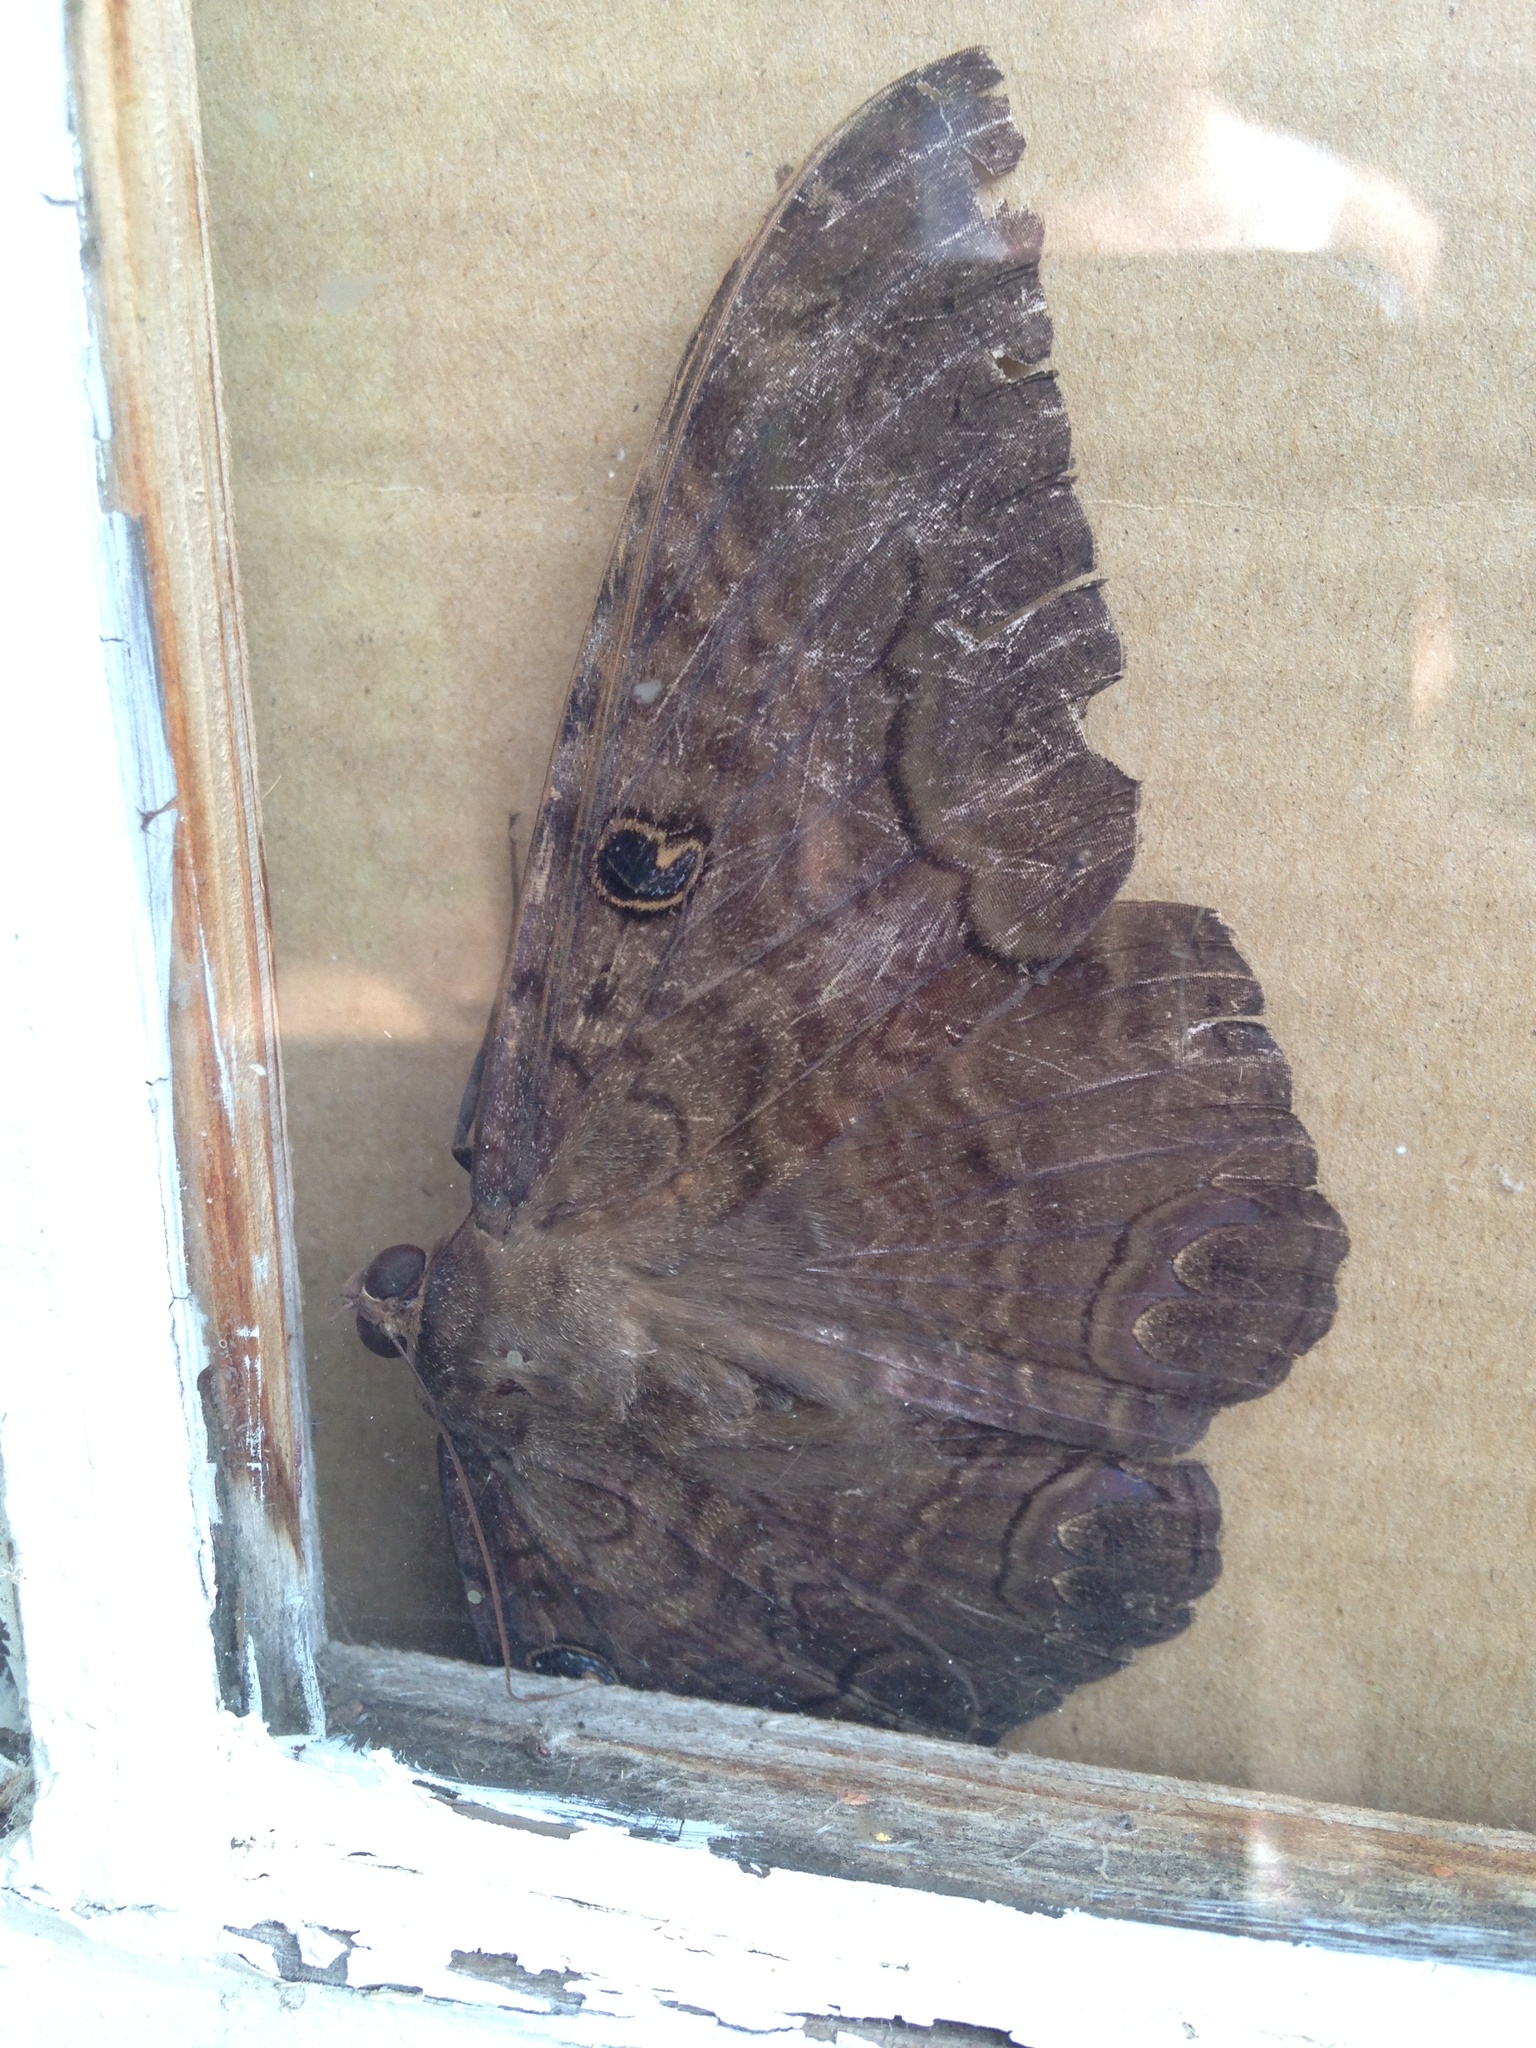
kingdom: Animalia
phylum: Arthropoda
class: Insecta
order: Lepidoptera
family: Erebidae
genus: Ascalapha
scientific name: Ascalapha odorata
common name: Black witch
